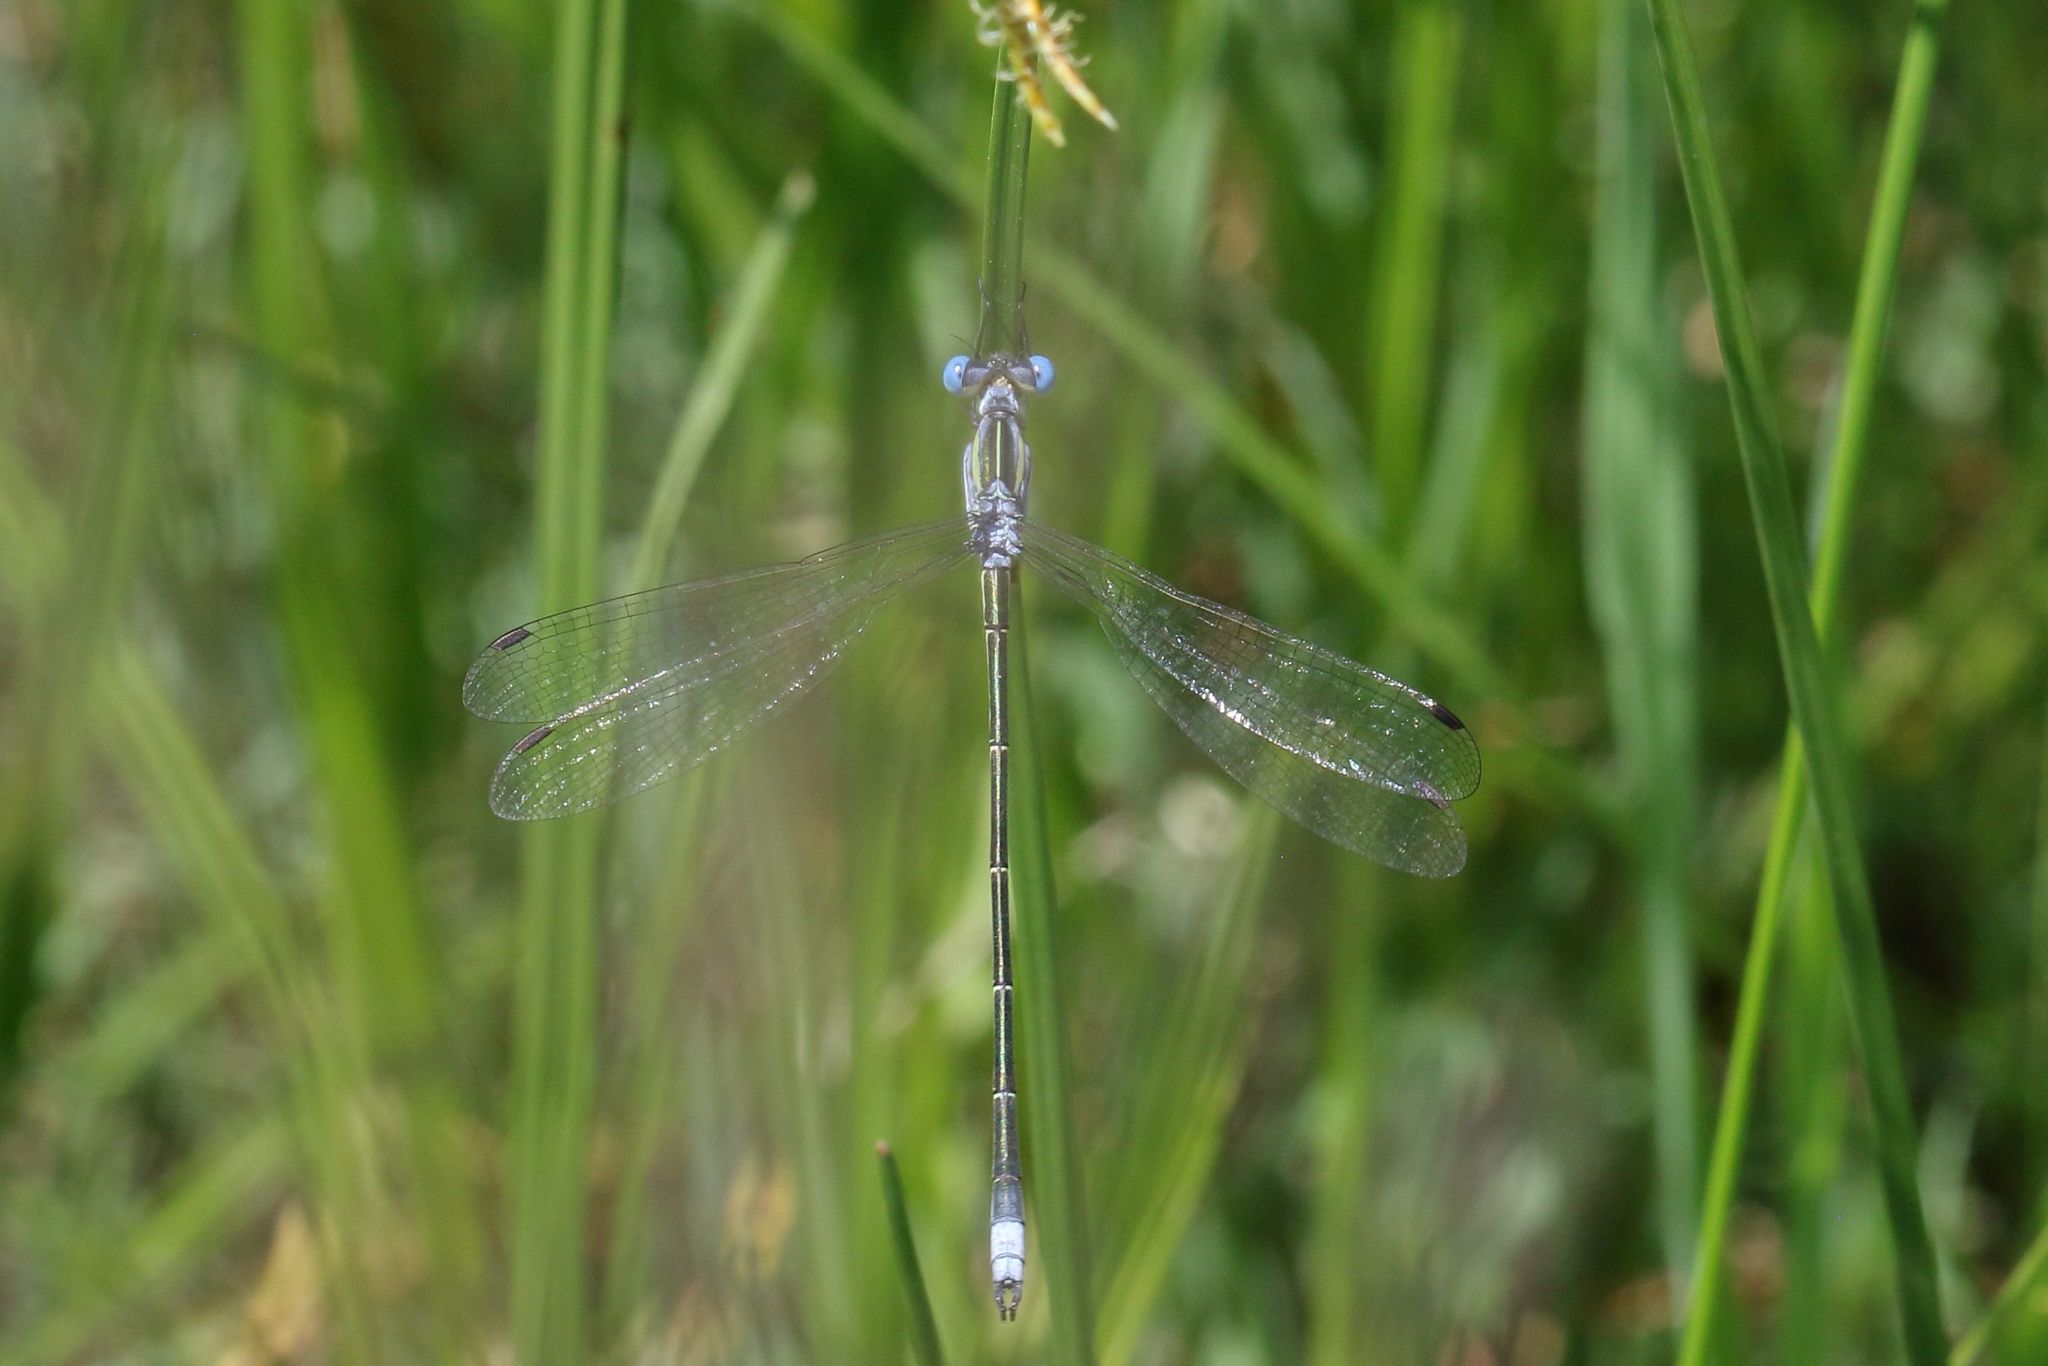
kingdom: Animalia
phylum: Arthropoda
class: Insecta
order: Odonata
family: Lestidae
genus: Lestes
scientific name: Lestes plagiatus
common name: Highland spreadwing
